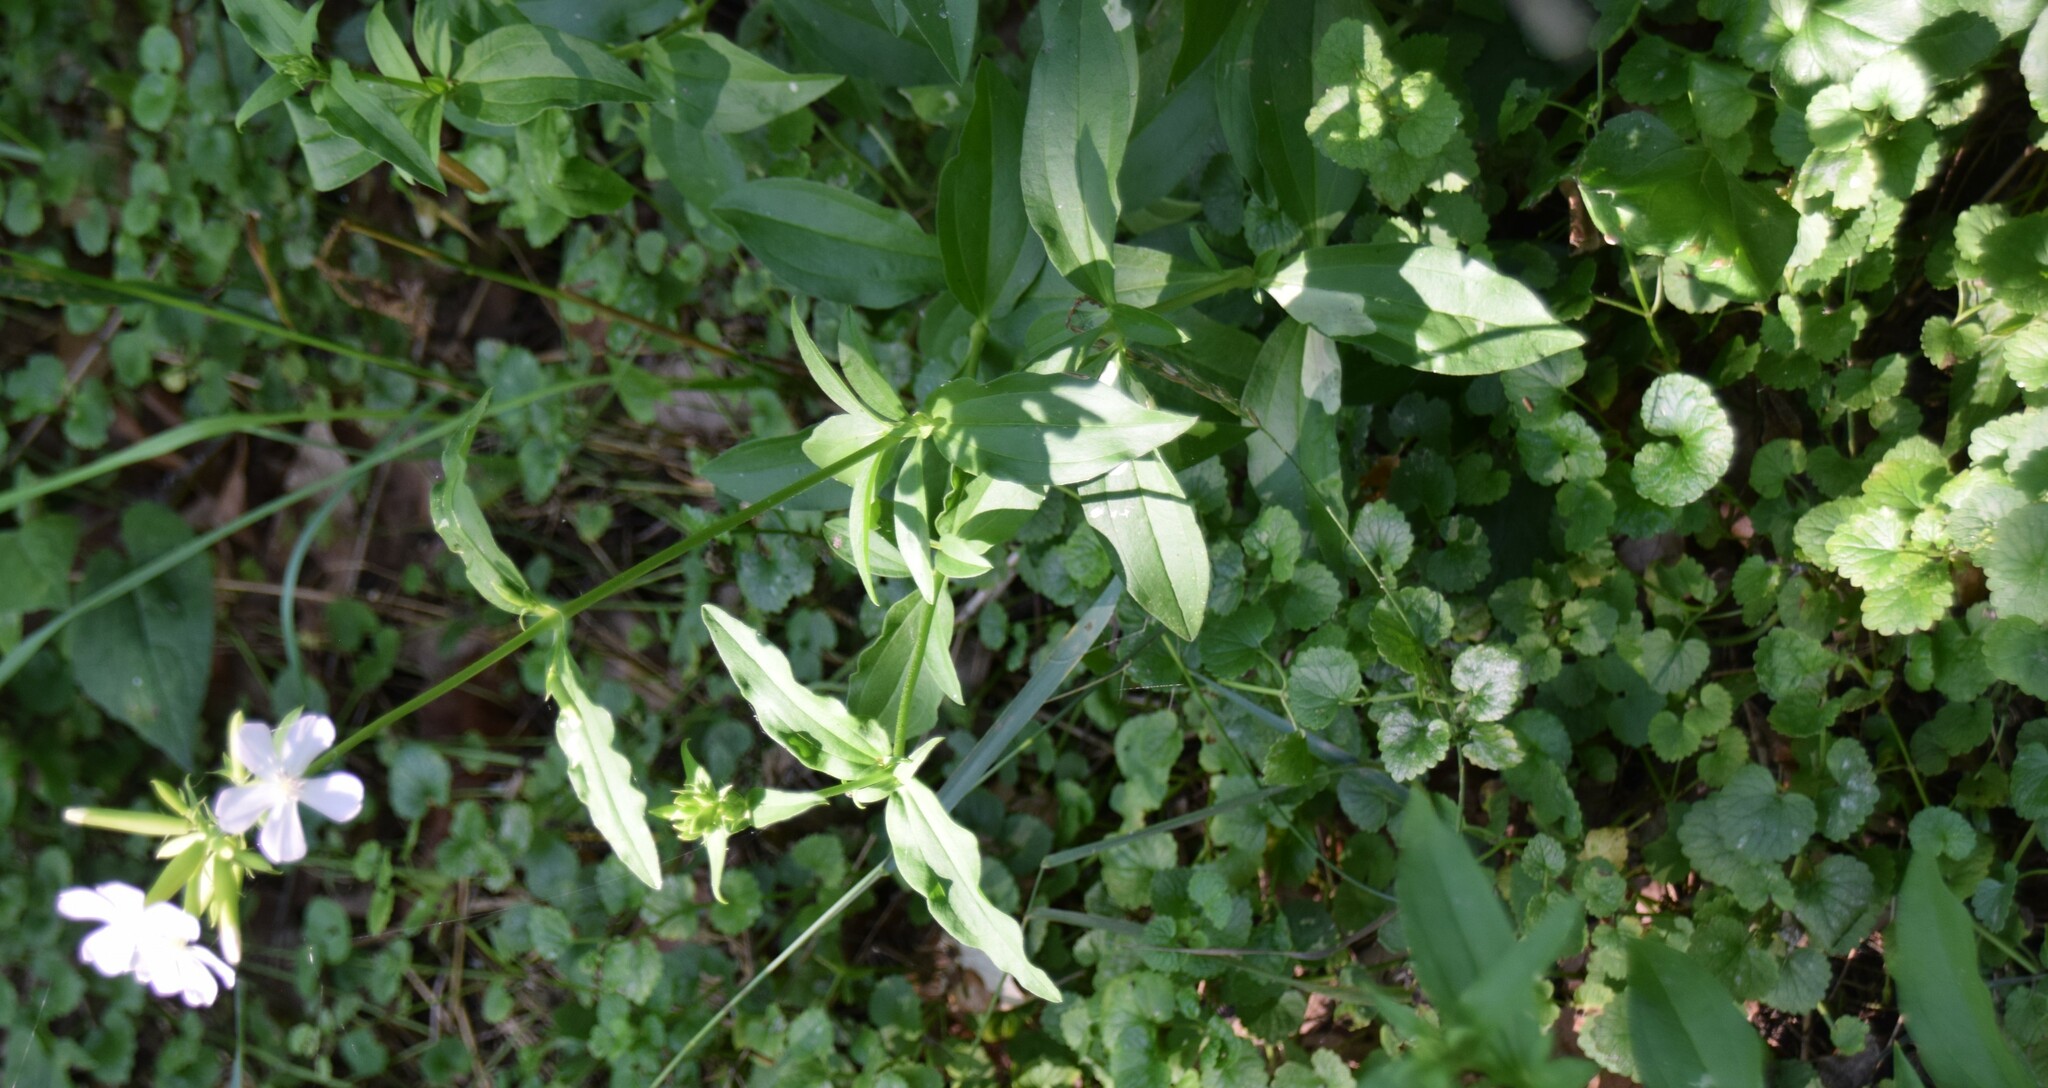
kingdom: Plantae
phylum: Tracheophyta
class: Magnoliopsida
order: Caryophyllales
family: Caryophyllaceae
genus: Saponaria
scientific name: Saponaria officinalis
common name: Soapwort
